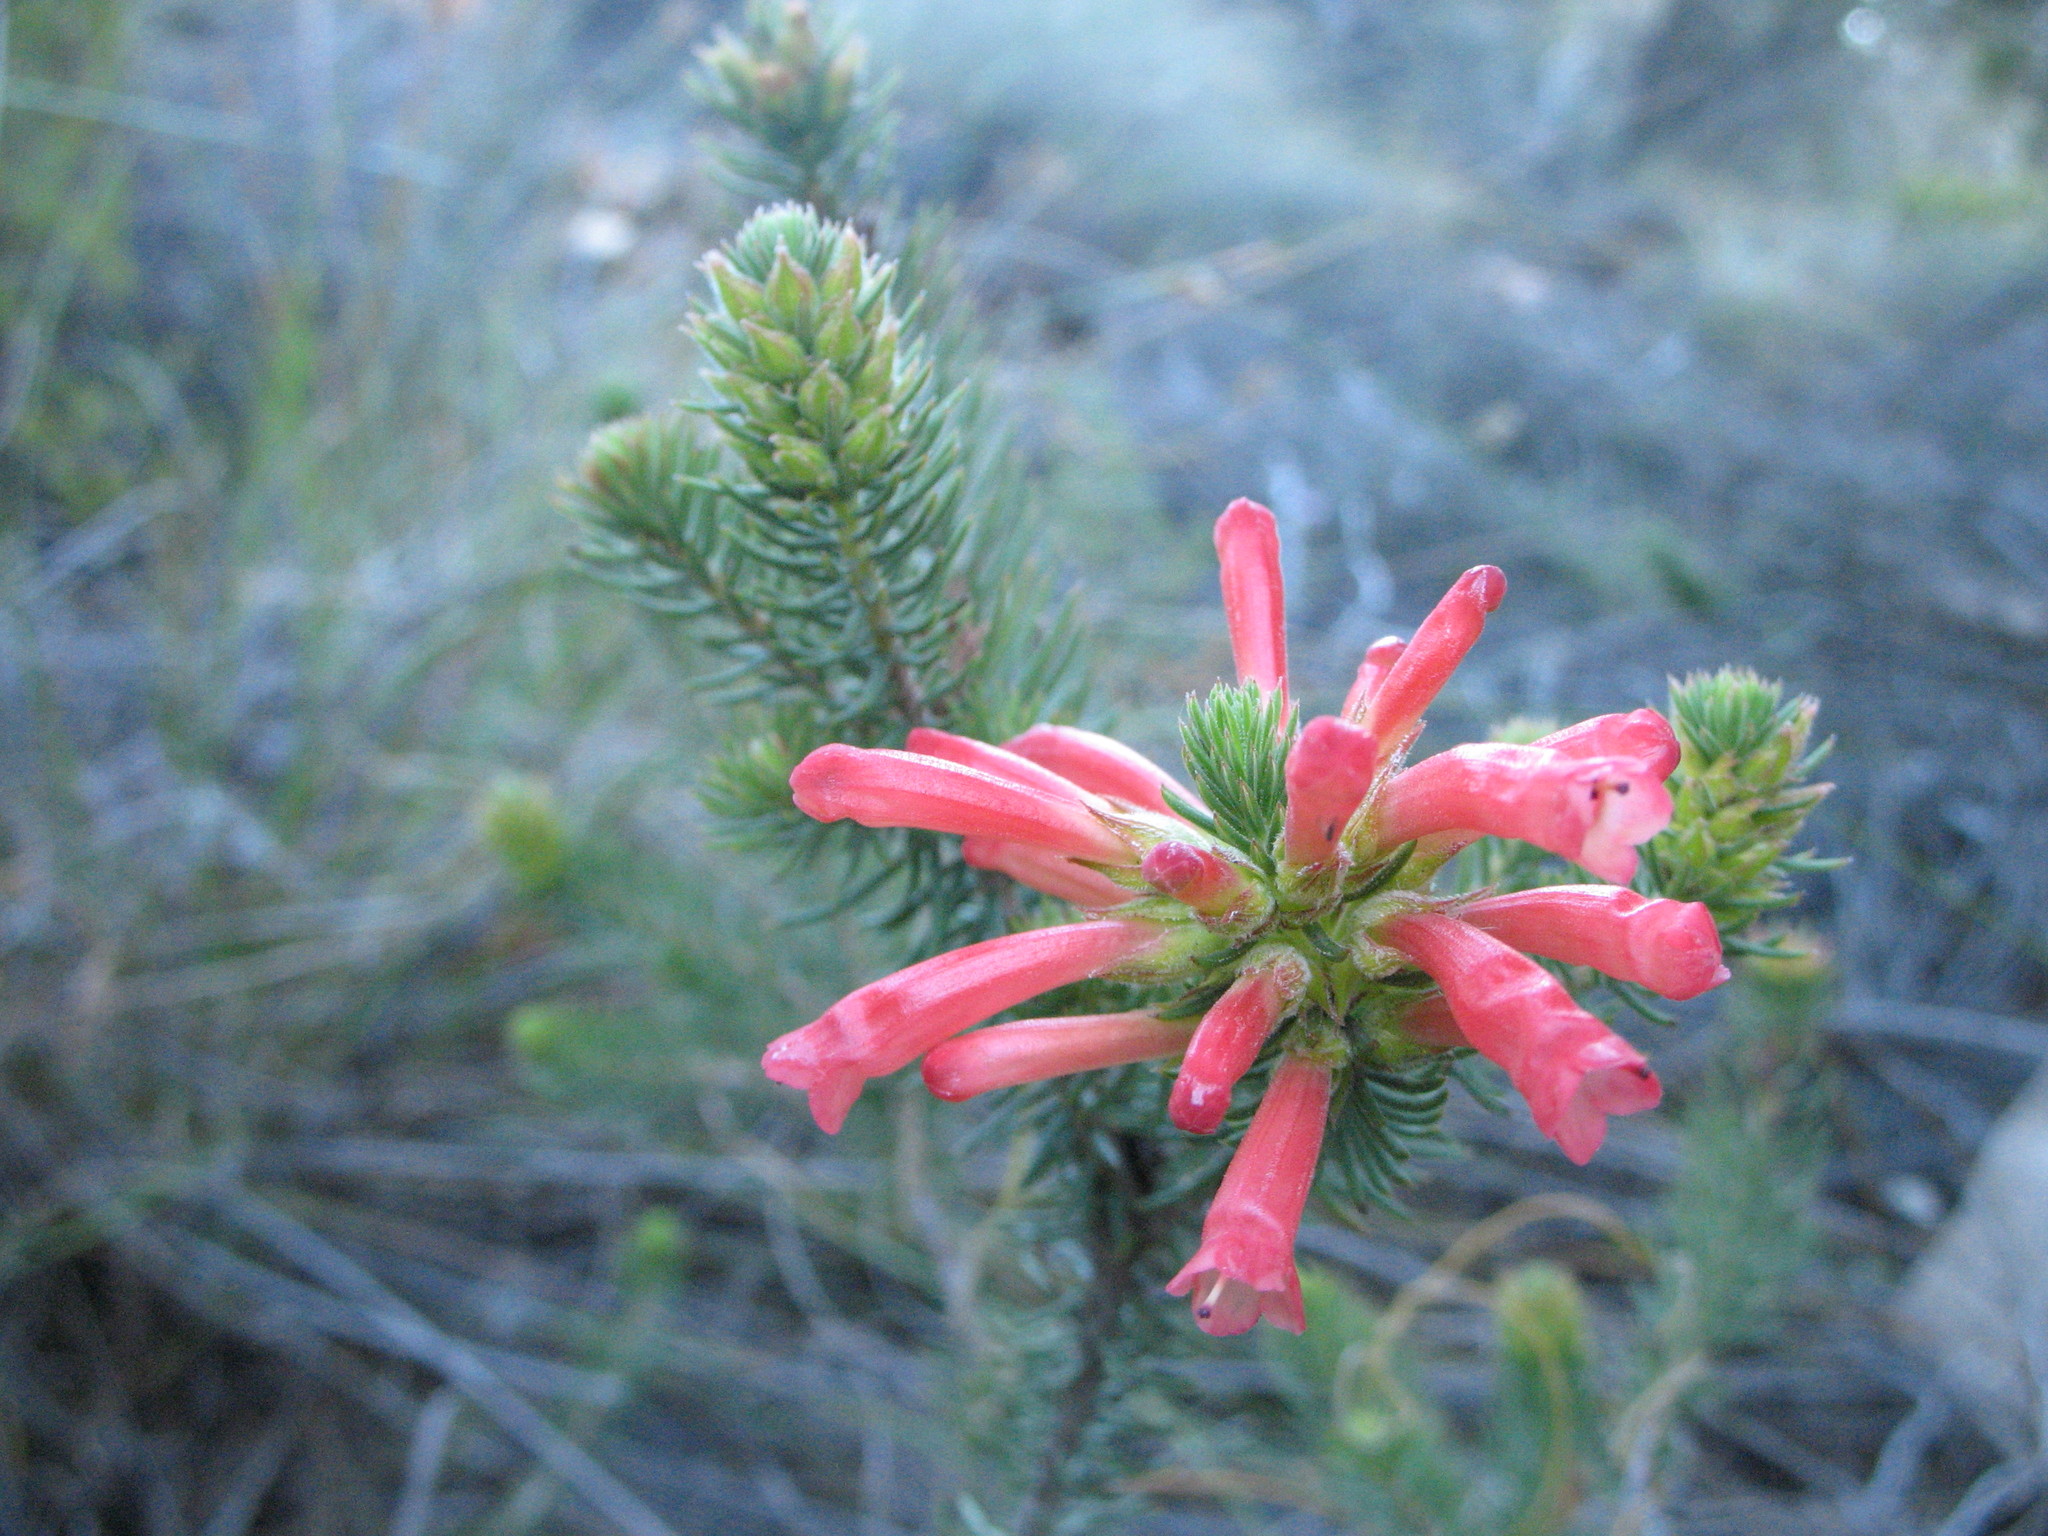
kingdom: Plantae
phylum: Tracheophyta
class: Magnoliopsida
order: Ericales
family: Ericaceae
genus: Erica
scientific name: Erica abietina
